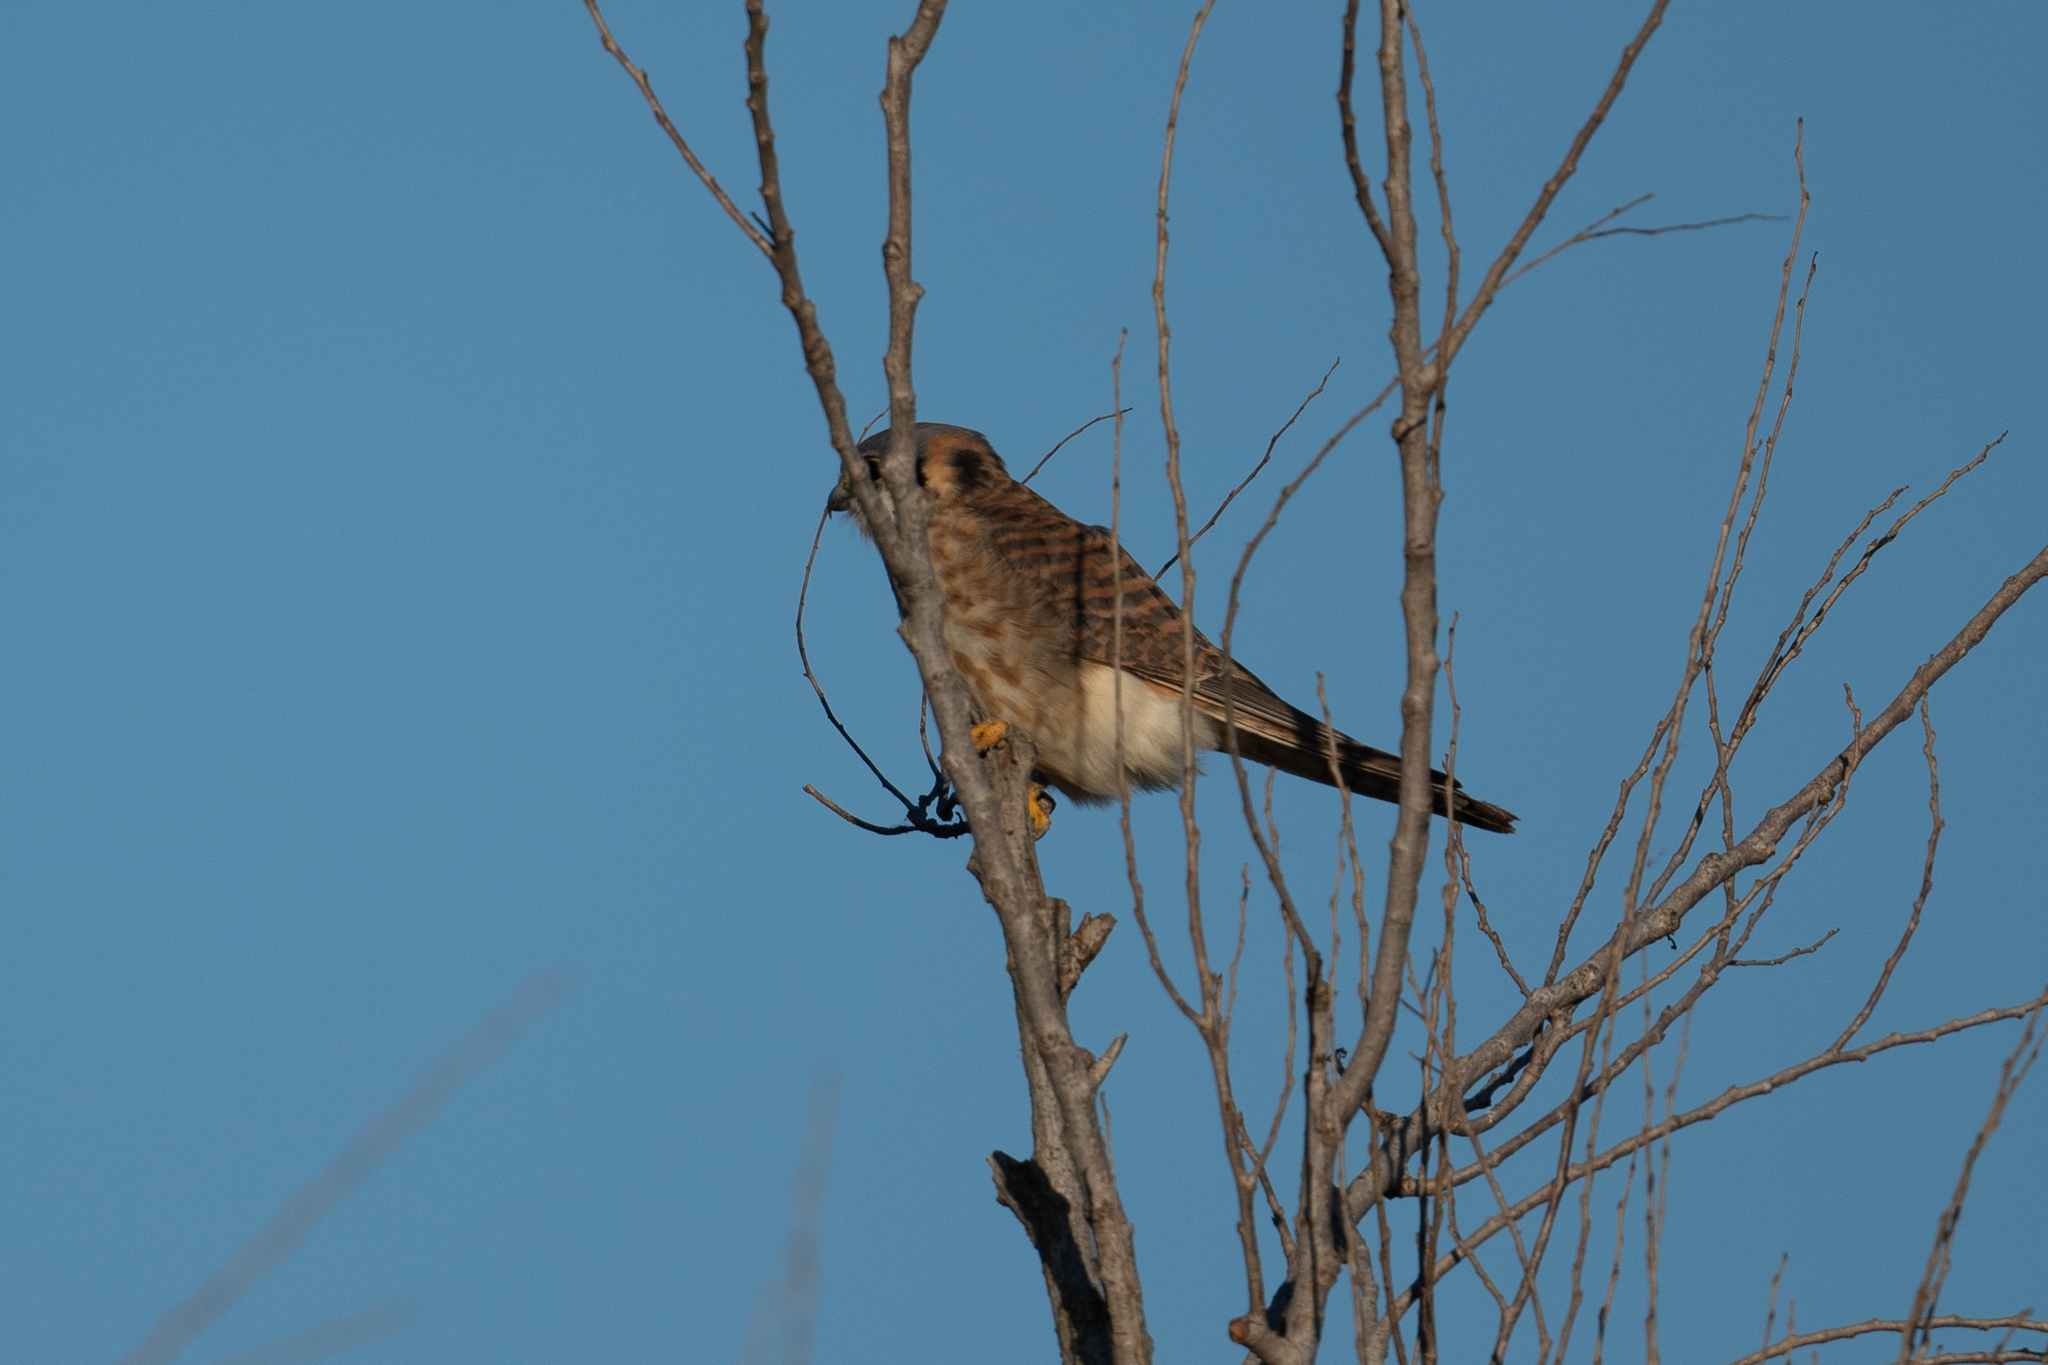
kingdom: Animalia
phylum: Chordata
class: Aves
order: Falconiformes
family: Falconidae
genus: Falco
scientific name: Falco sparverius
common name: American kestrel
